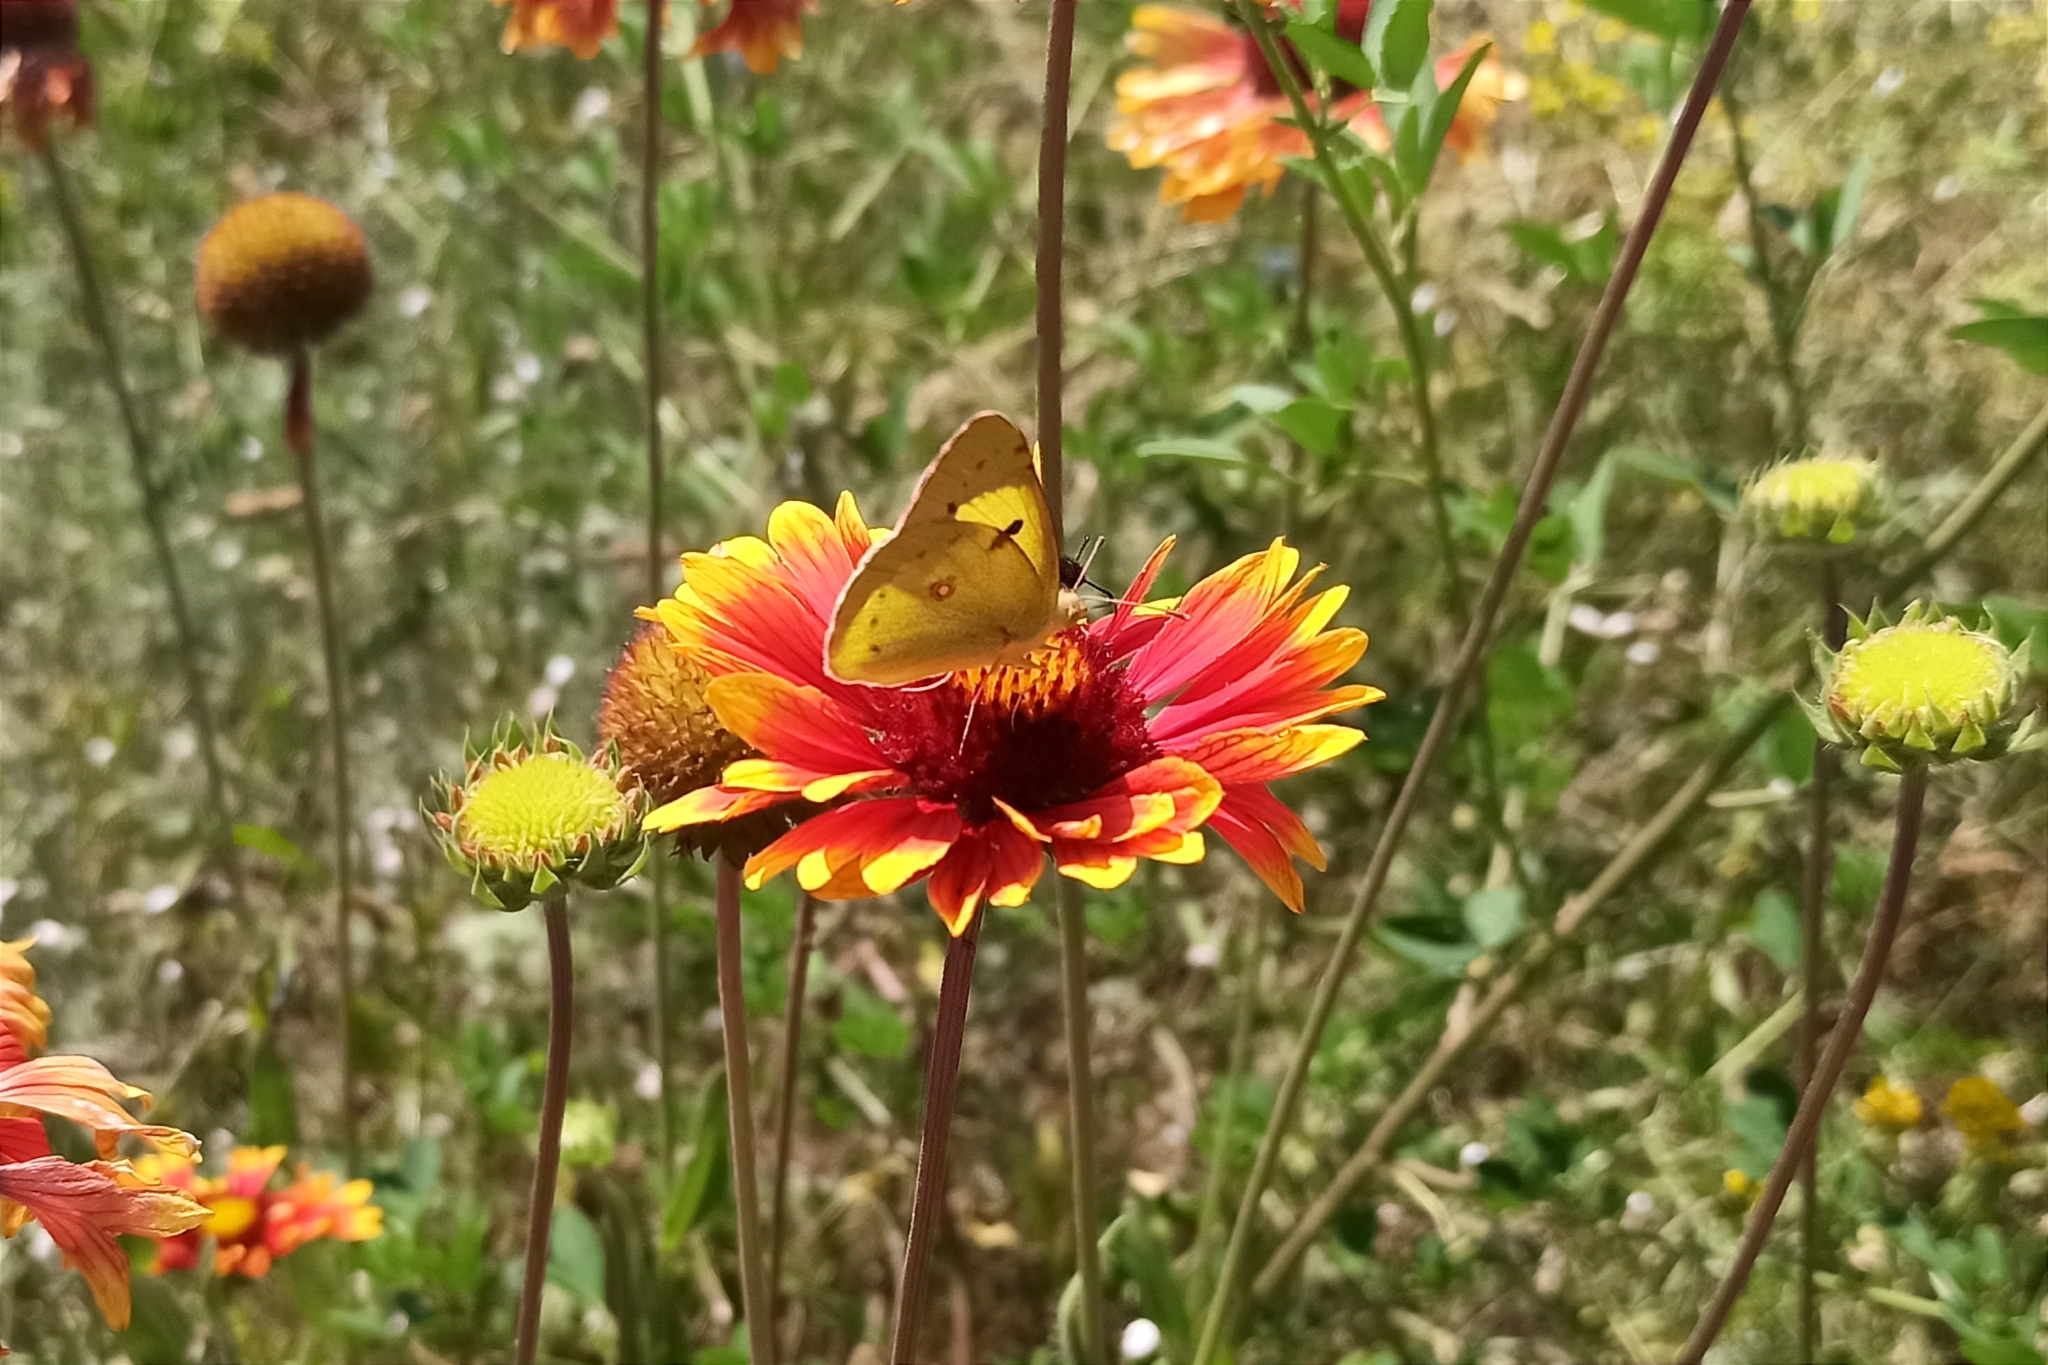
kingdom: Animalia
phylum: Arthropoda
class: Insecta
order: Lepidoptera
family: Pieridae
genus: Colias
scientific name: Colias erate
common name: Eastern pale clouded yellow
